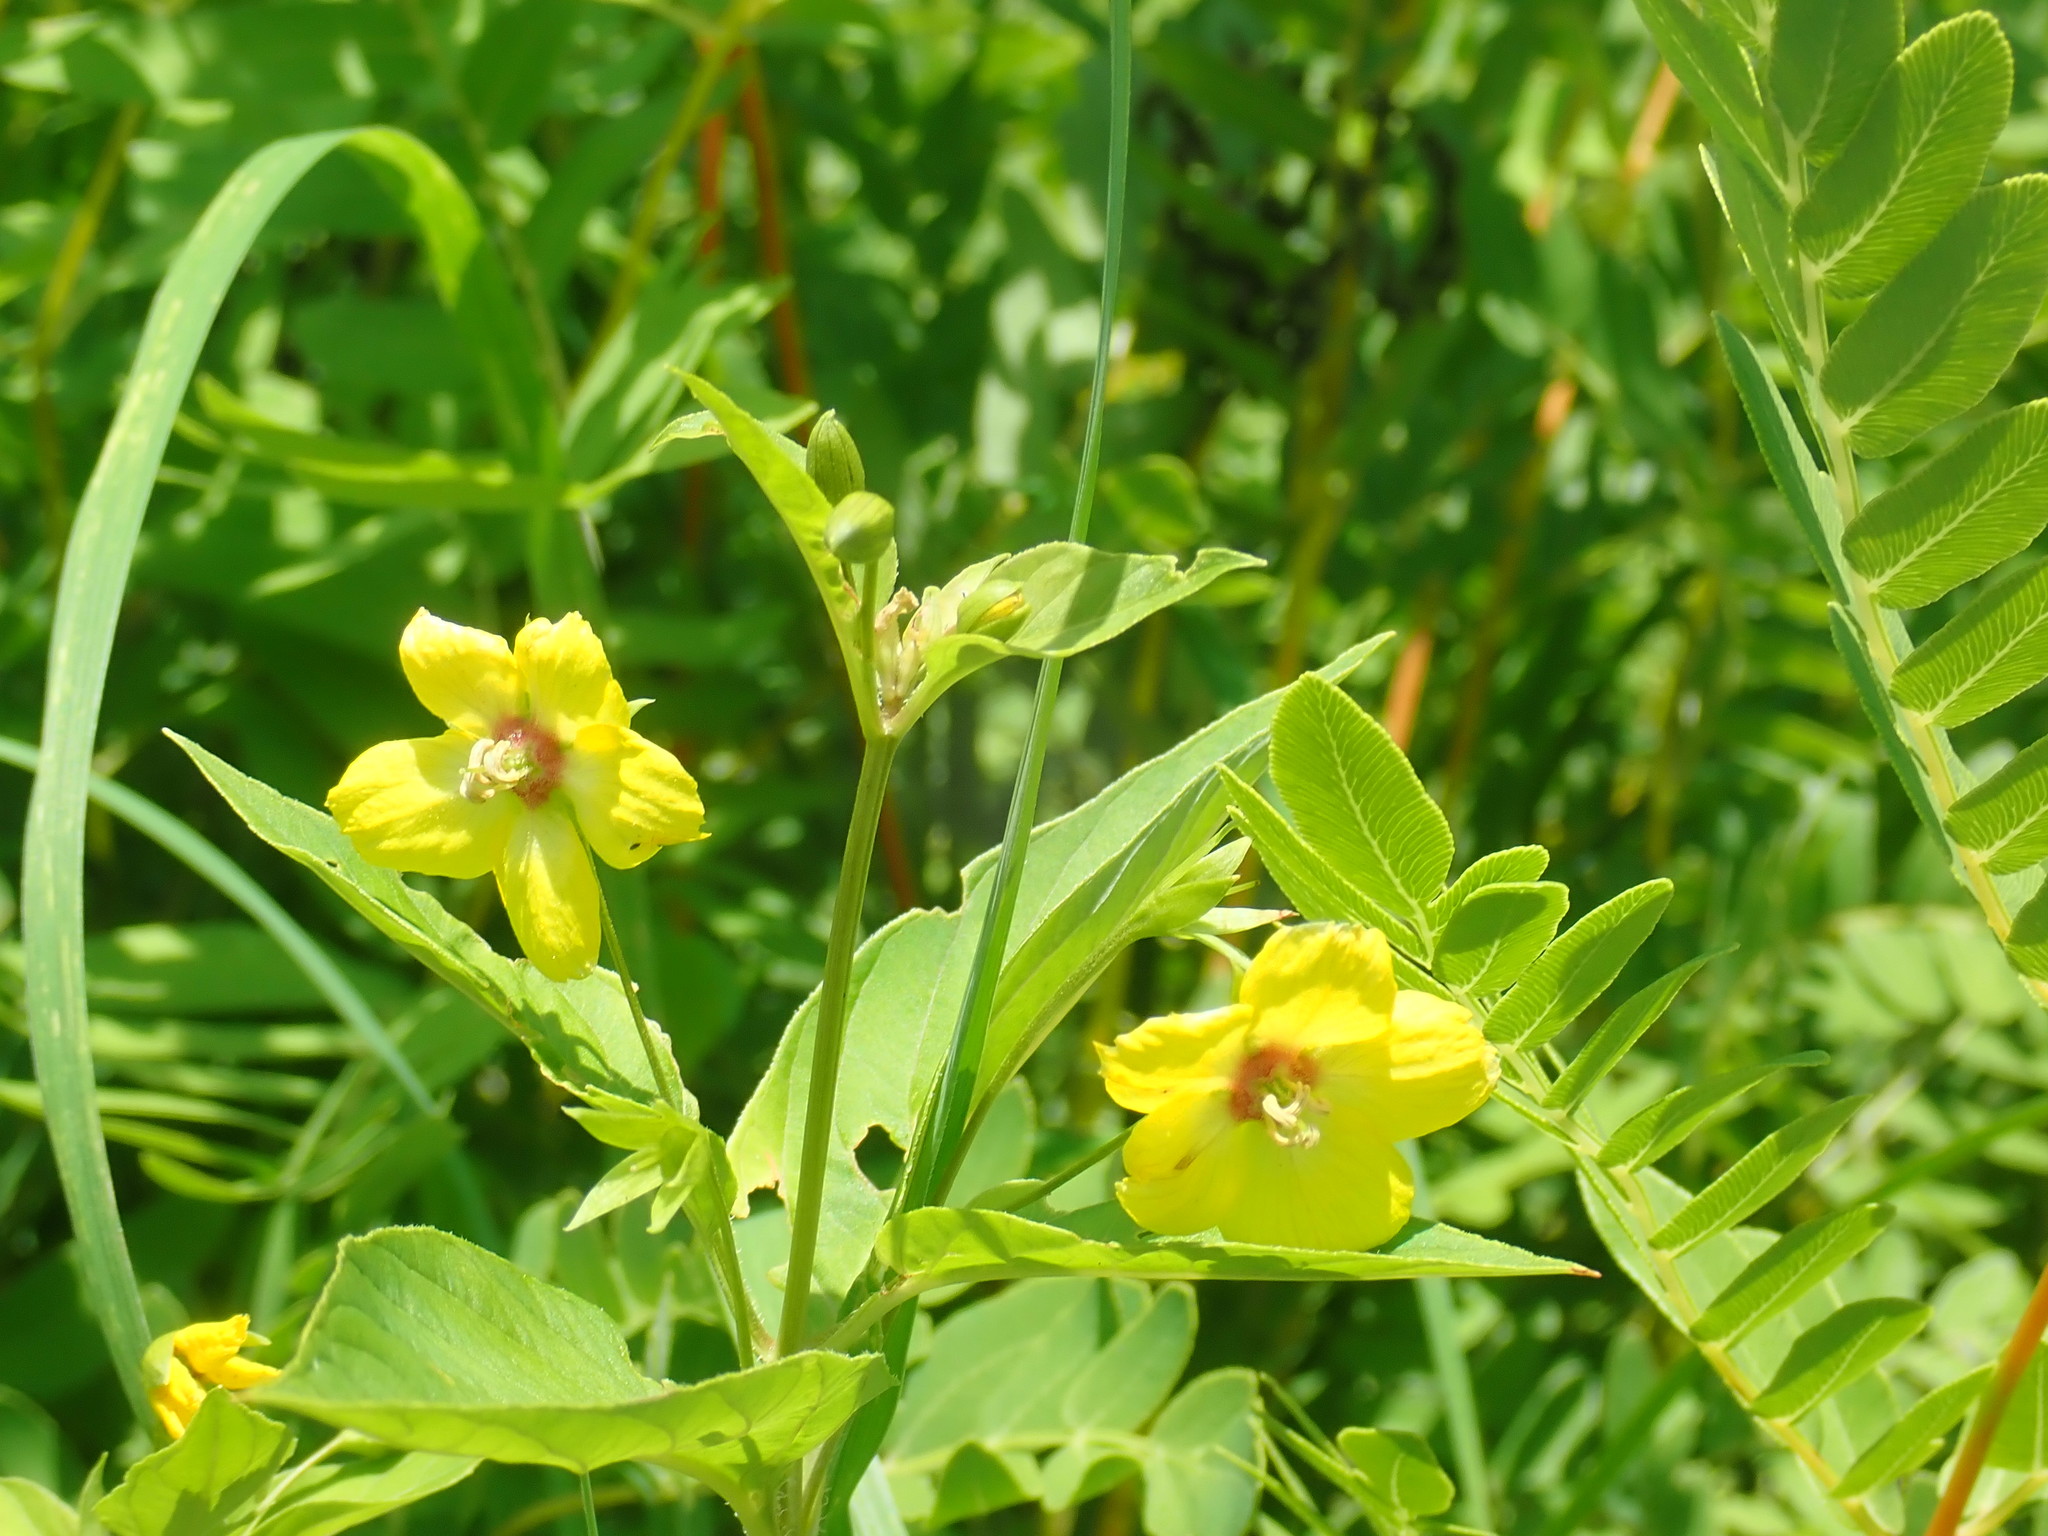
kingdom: Plantae
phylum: Tracheophyta
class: Magnoliopsida
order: Ericales
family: Primulaceae
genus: Lysimachia
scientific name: Lysimachia ciliata
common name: Fringed loosestrife
